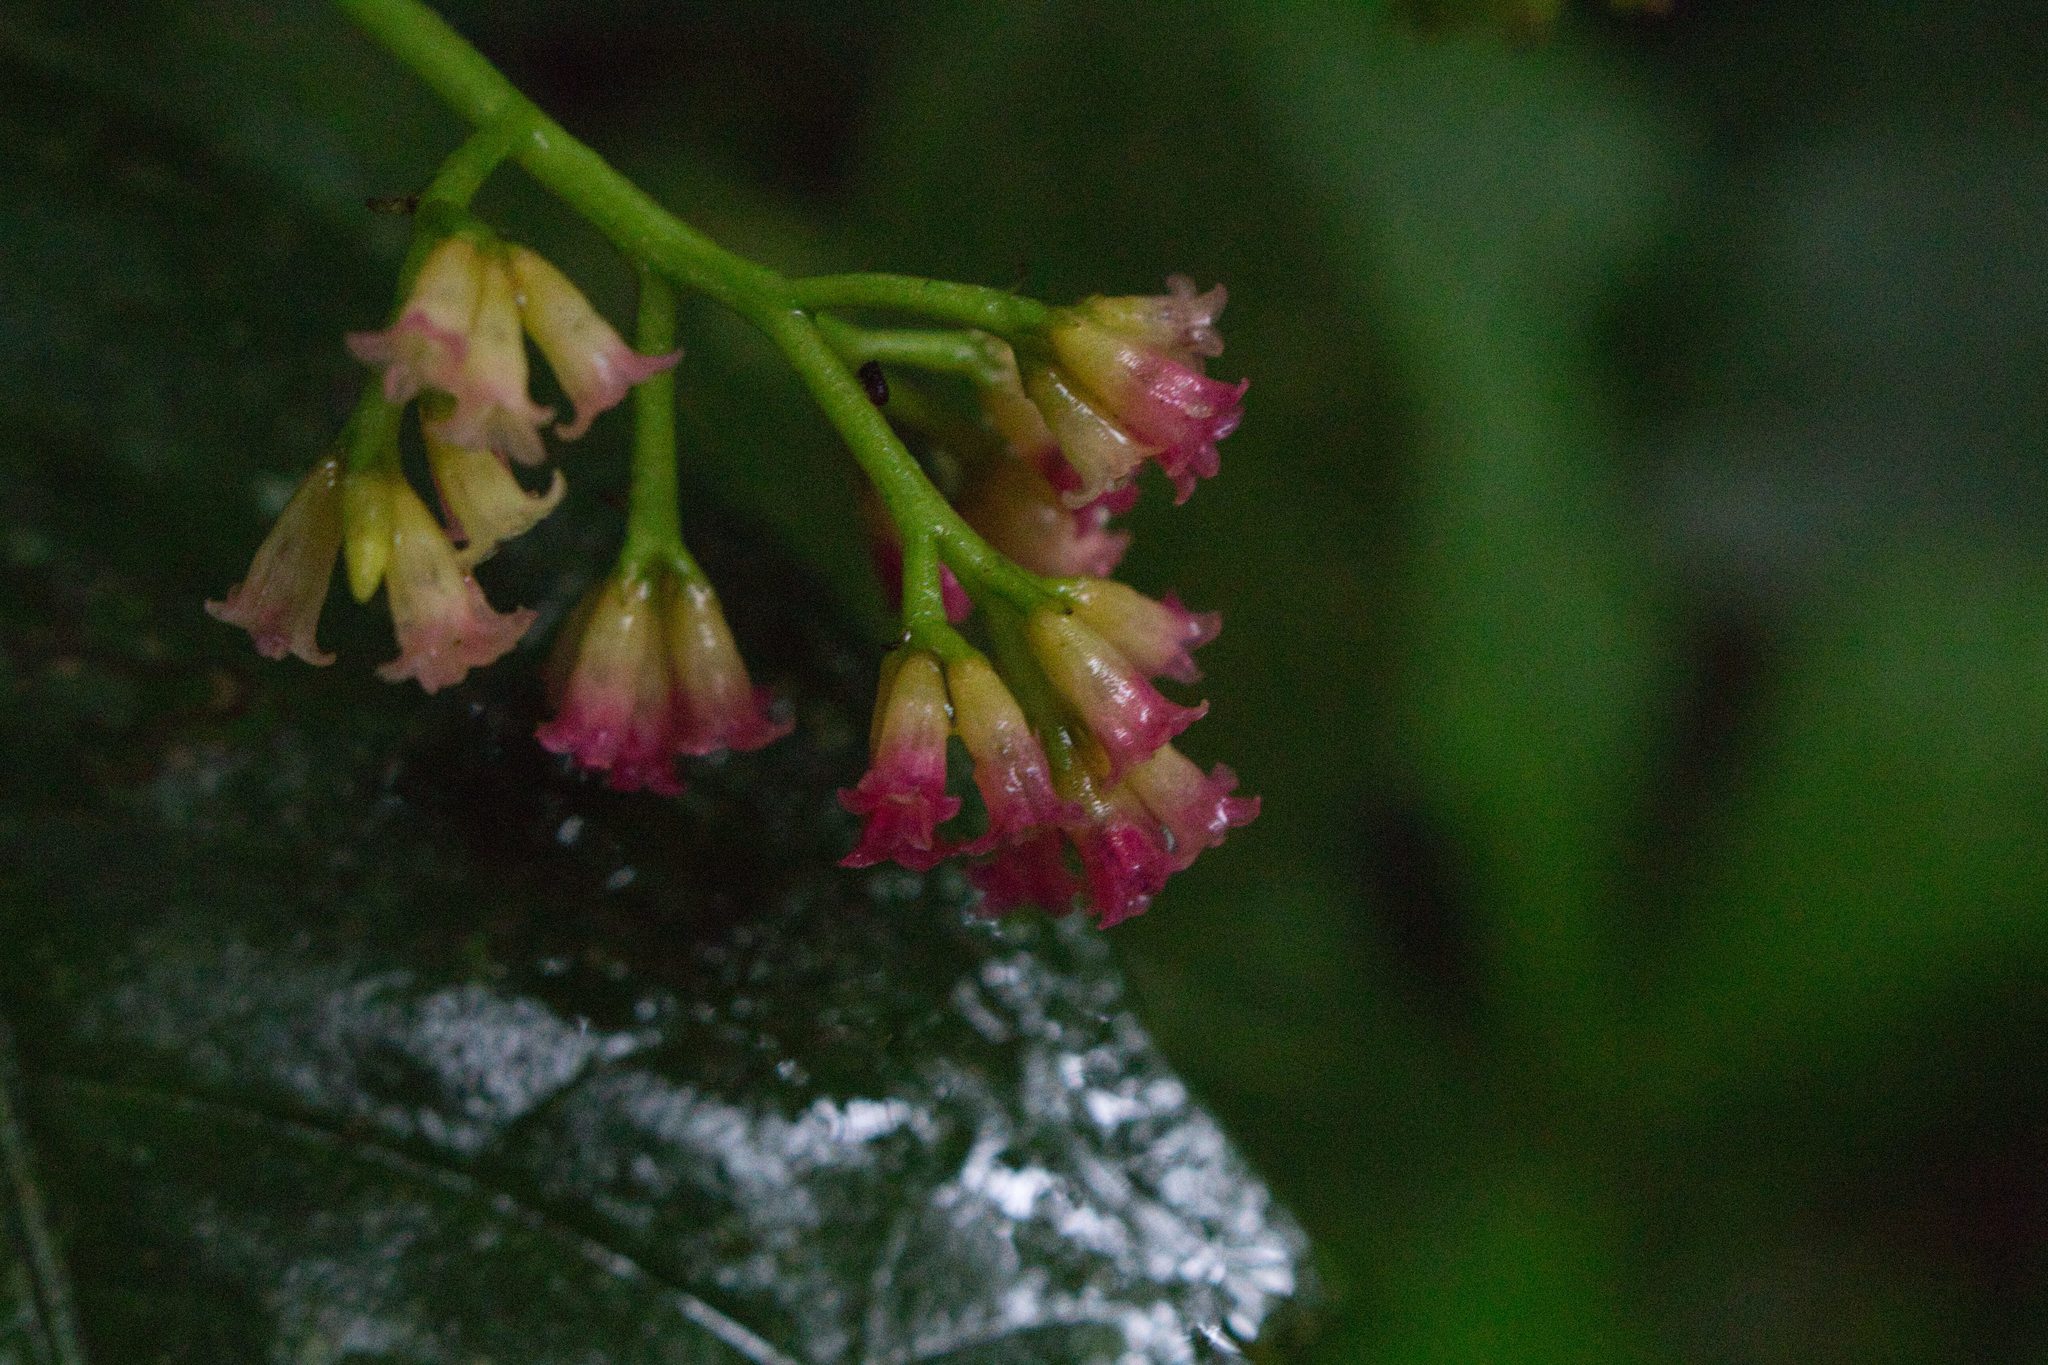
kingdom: Plantae
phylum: Tracheophyta
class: Magnoliopsida
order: Caryophyllales
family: Nyctaginaceae
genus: Neea
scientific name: Neea pittieri
